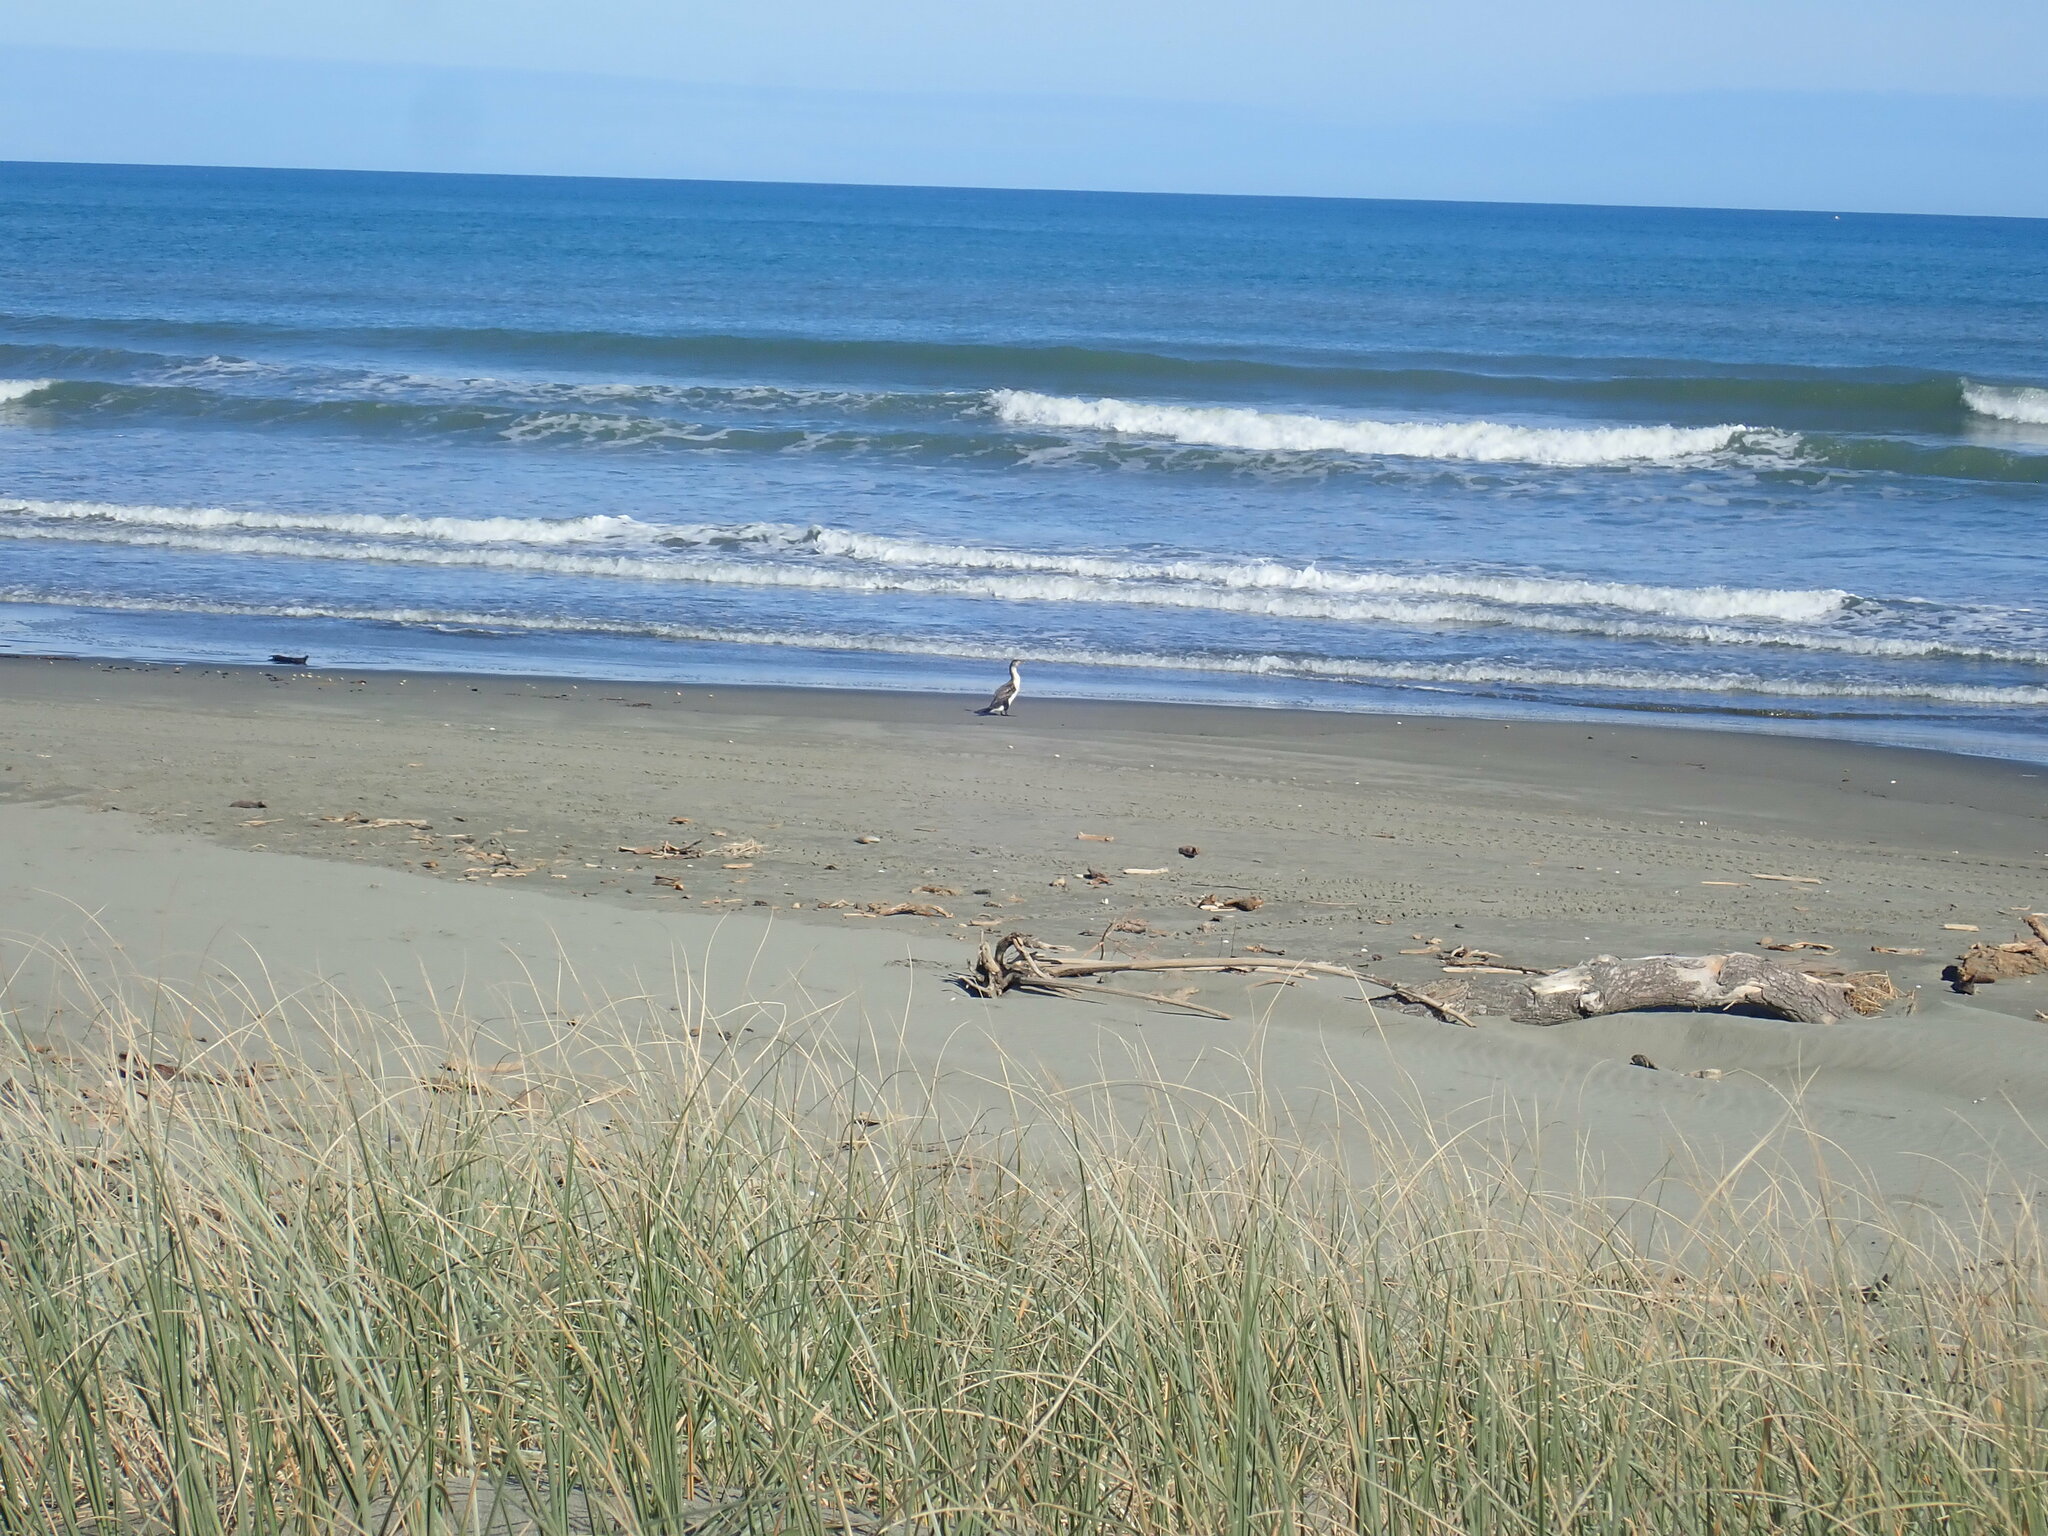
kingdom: Animalia
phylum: Chordata
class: Aves
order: Suliformes
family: Phalacrocoracidae
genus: Phalacrocorax
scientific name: Phalacrocorax varius
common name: Pied cormorant
